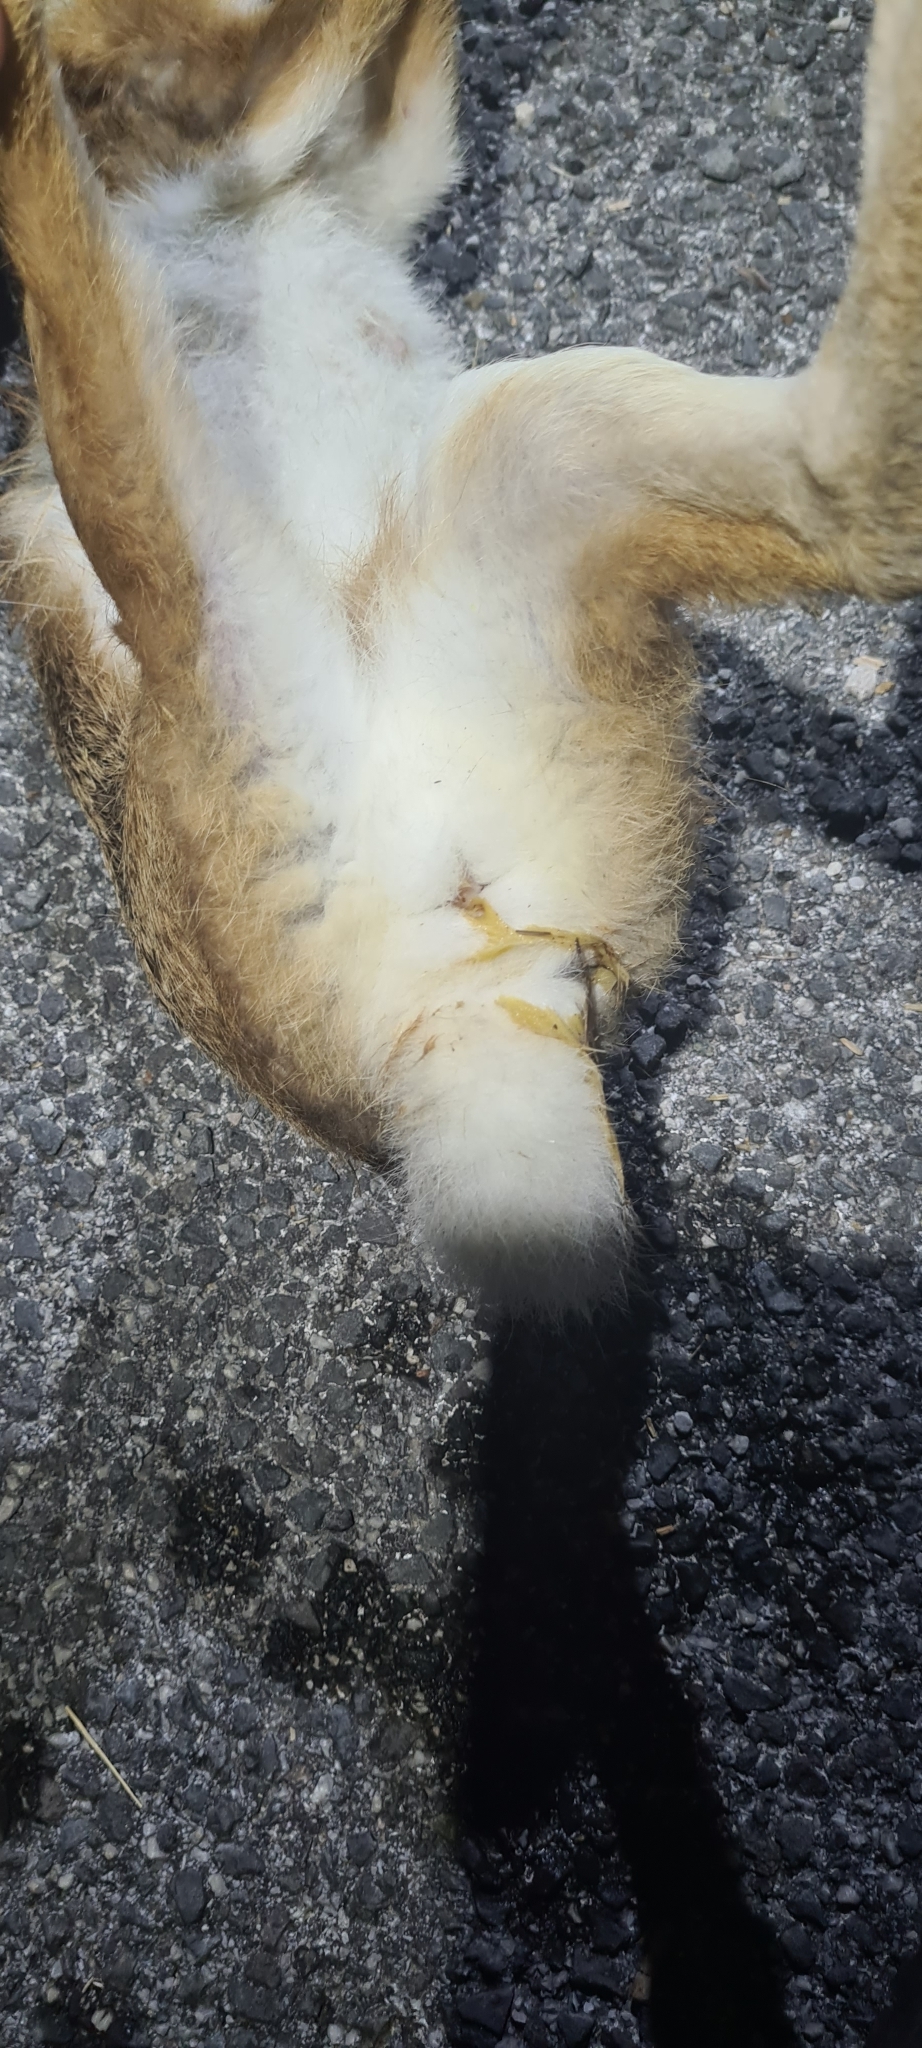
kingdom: Animalia
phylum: Chordata
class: Mammalia
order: Lagomorpha
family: Leporidae
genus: Lepus
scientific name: Lepus corsicanus
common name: Corsican hare
